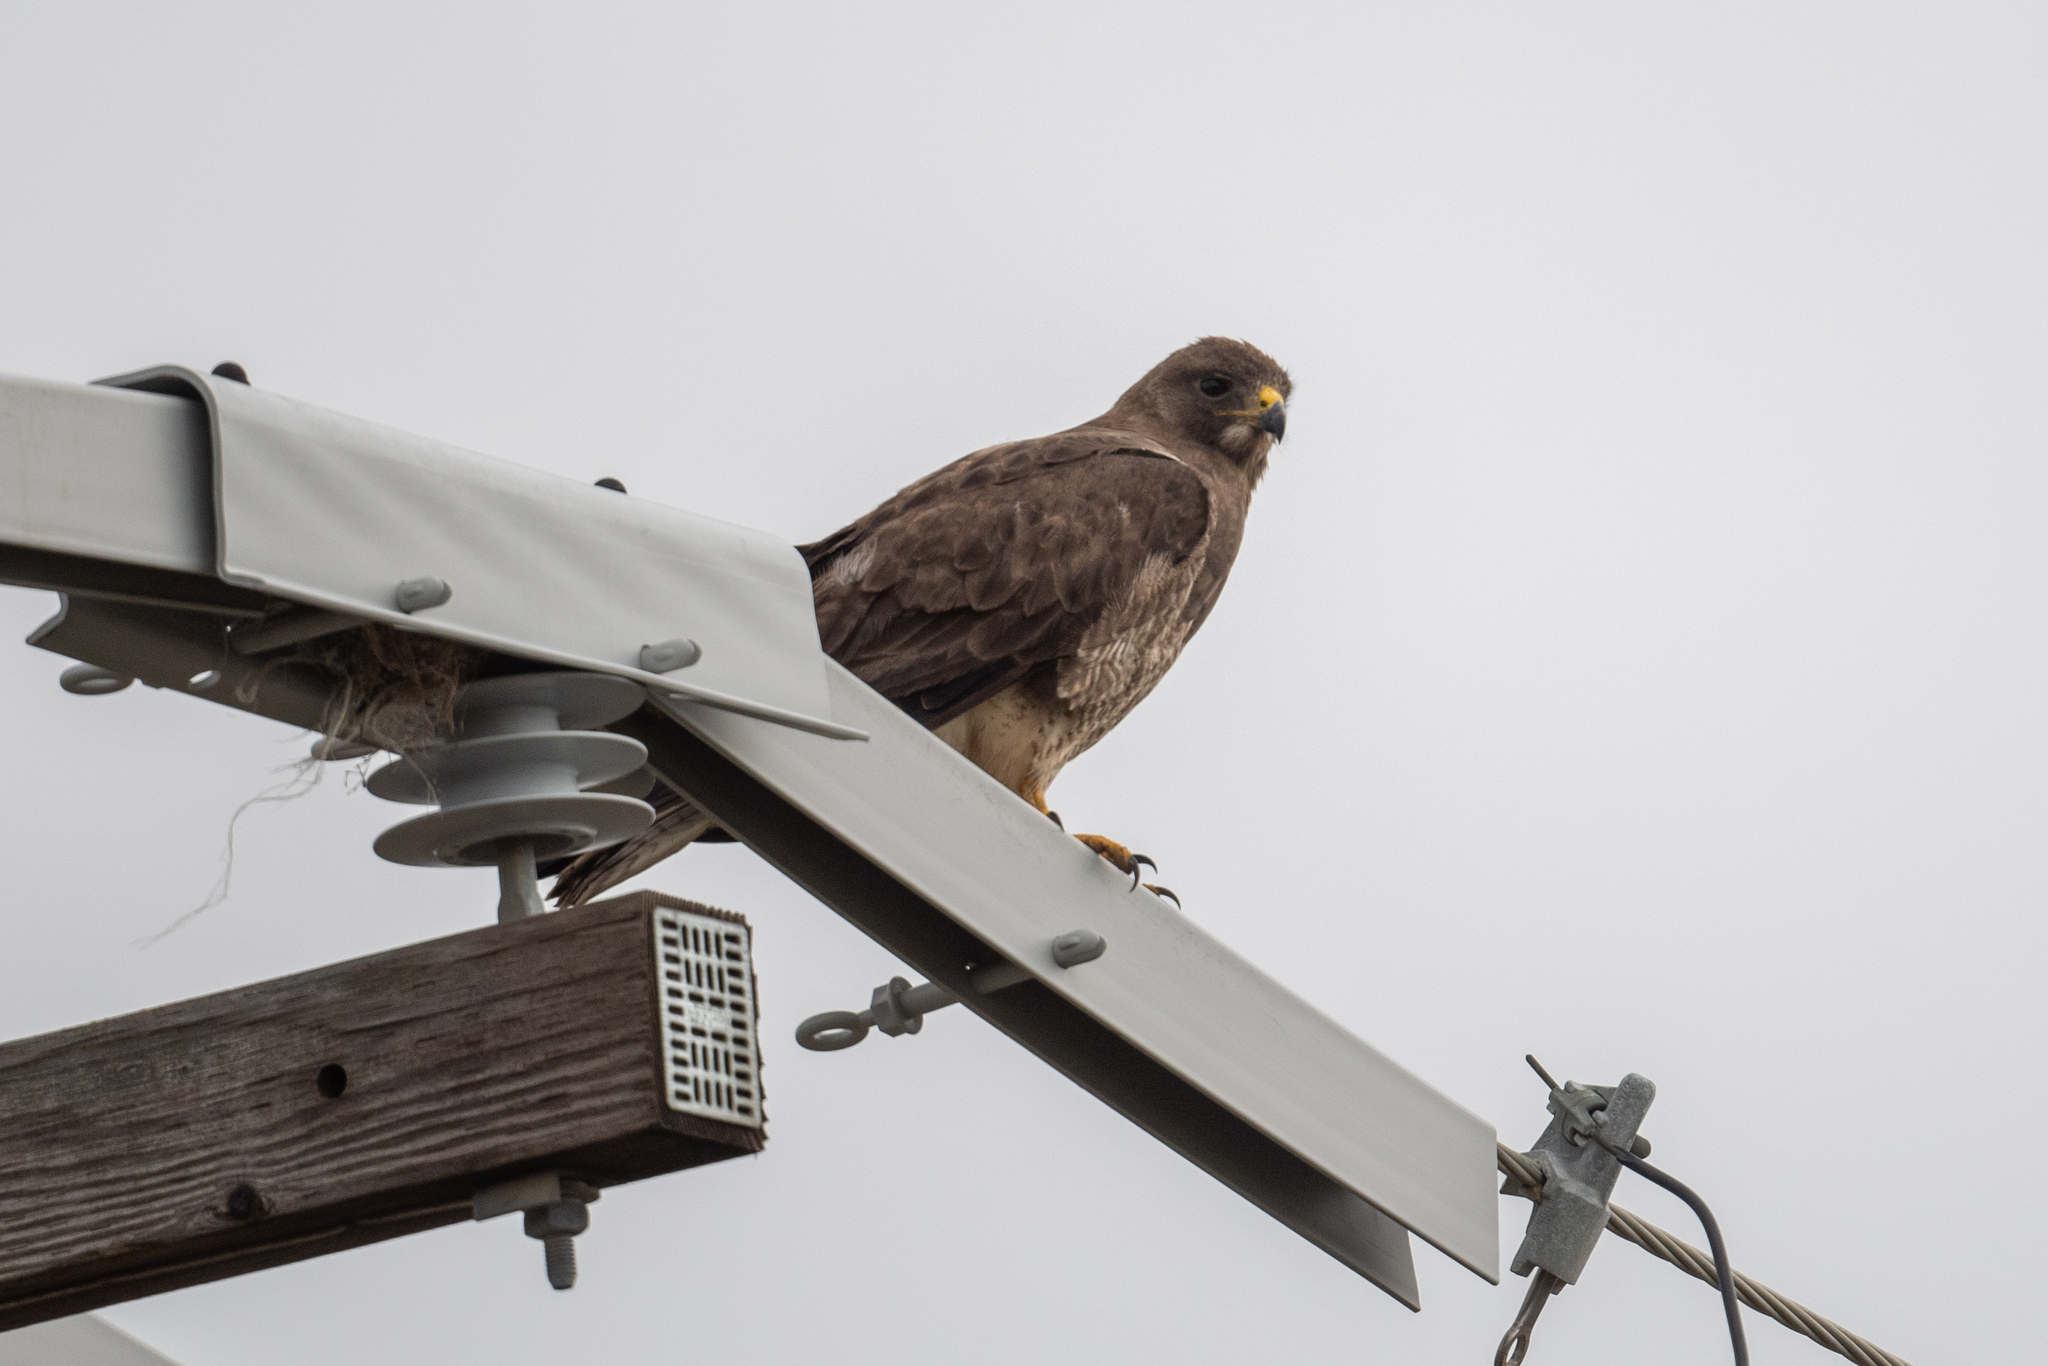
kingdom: Animalia
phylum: Chordata
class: Aves
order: Accipitriformes
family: Accipitridae
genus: Buteo
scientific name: Buteo swainsoni
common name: Swainson's hawk
